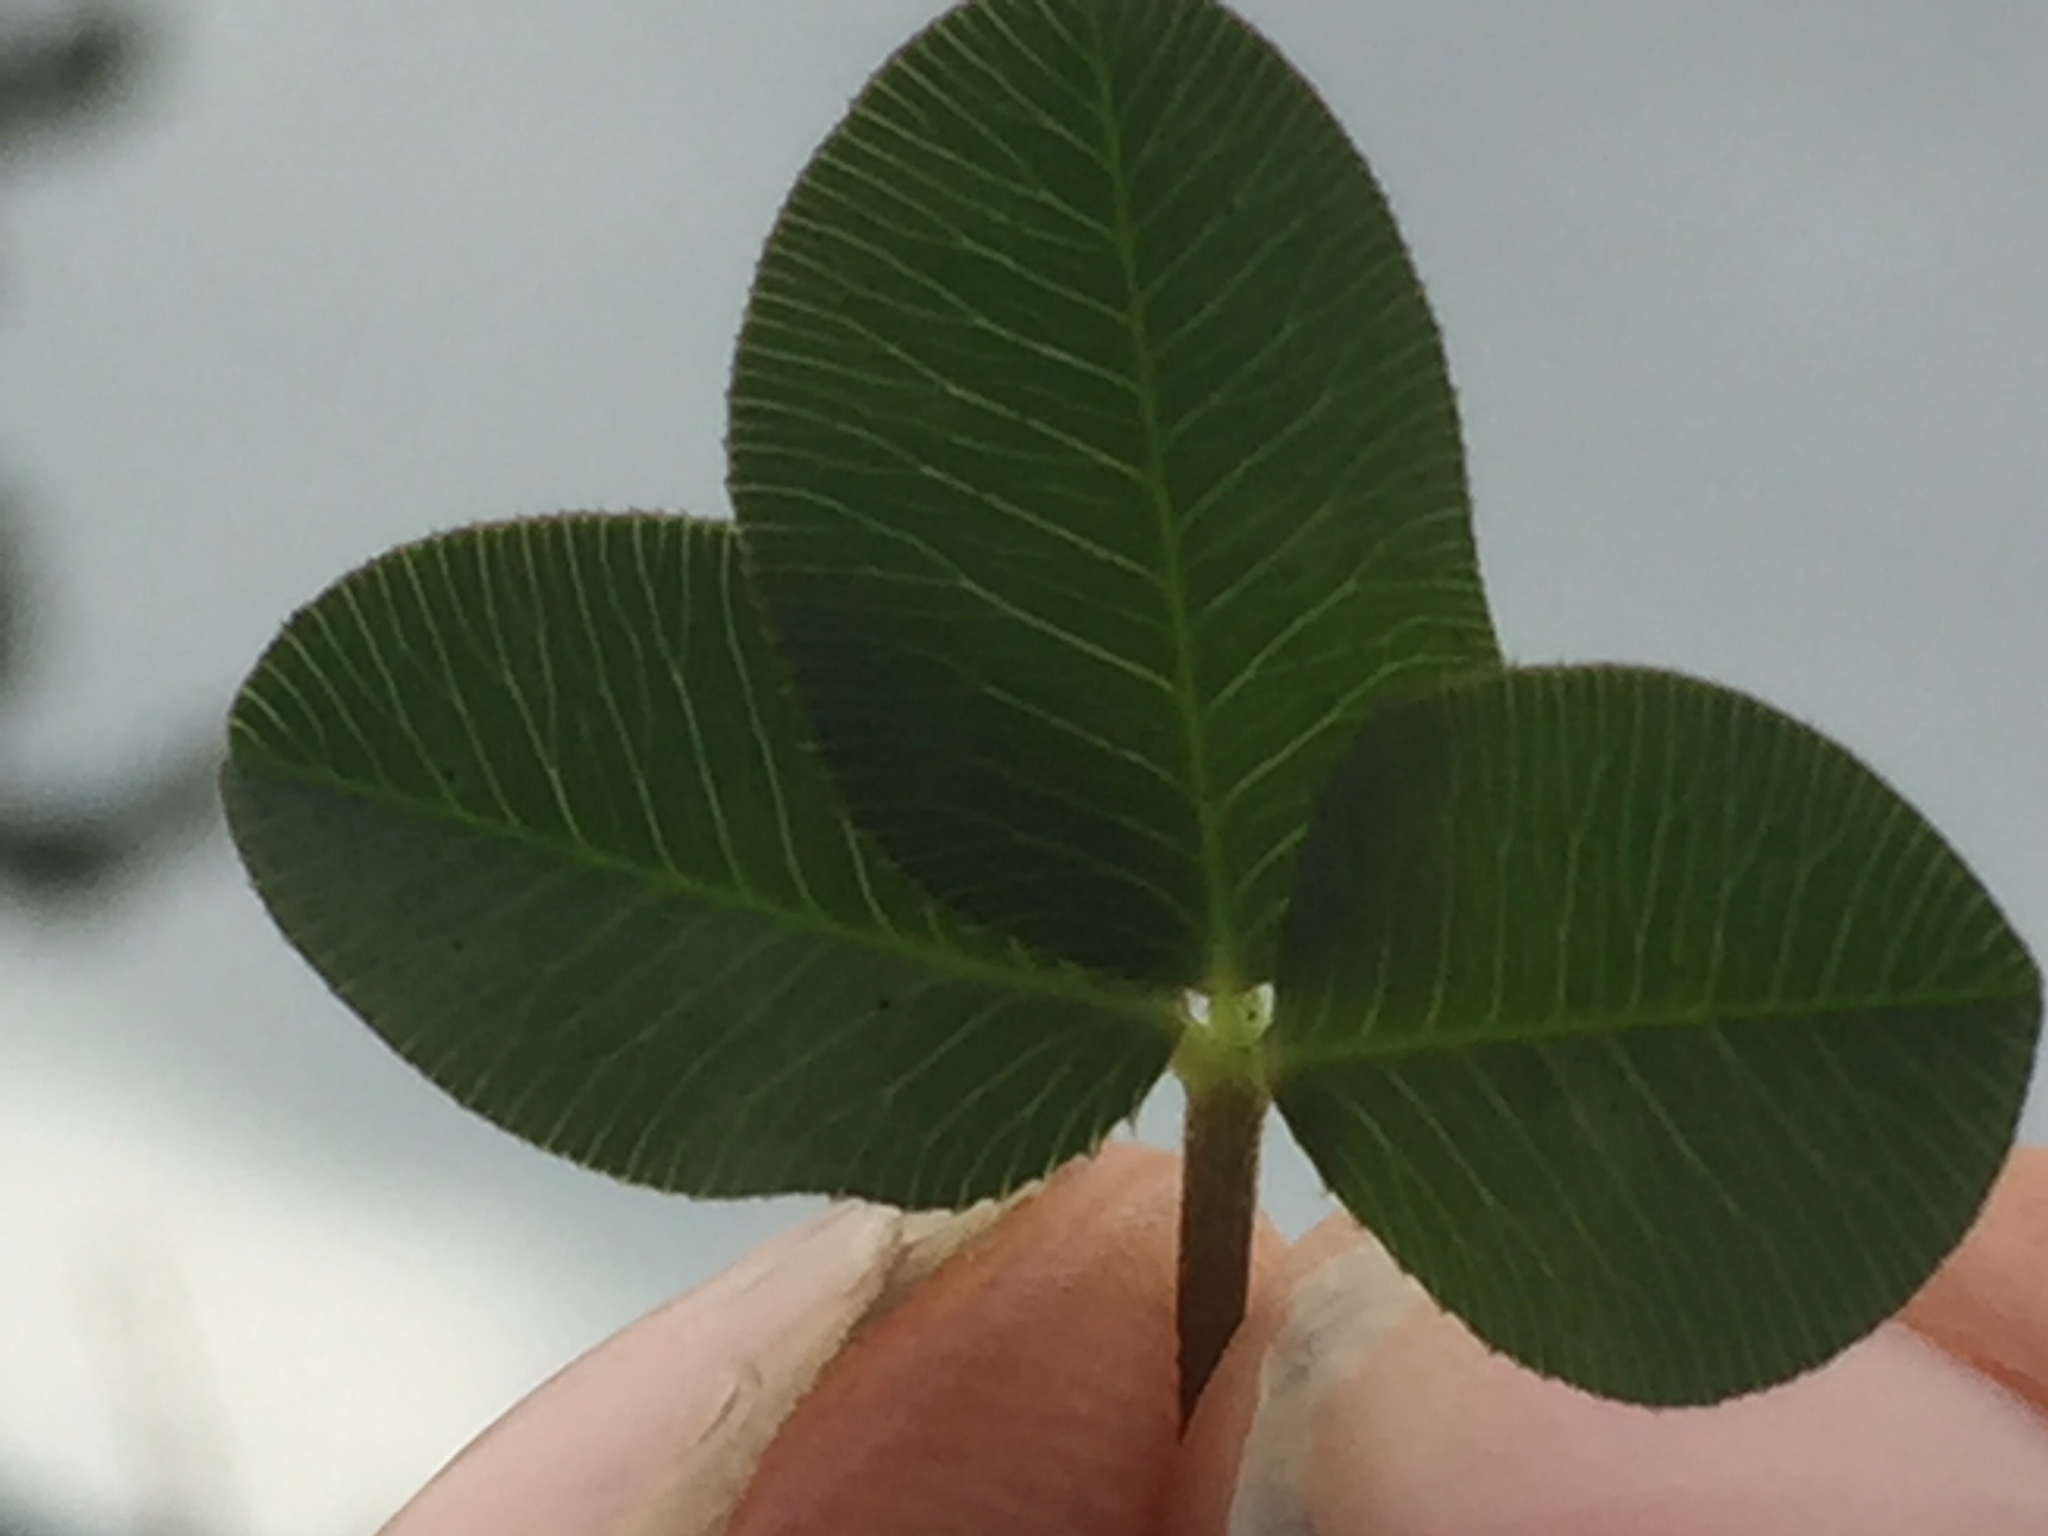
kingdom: Plantae
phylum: Tracheophyta
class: Magnoliopsida
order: Fabales
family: Fabaceae
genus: Trifolium
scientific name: Trifolium fragiferum
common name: Strawberry clover
